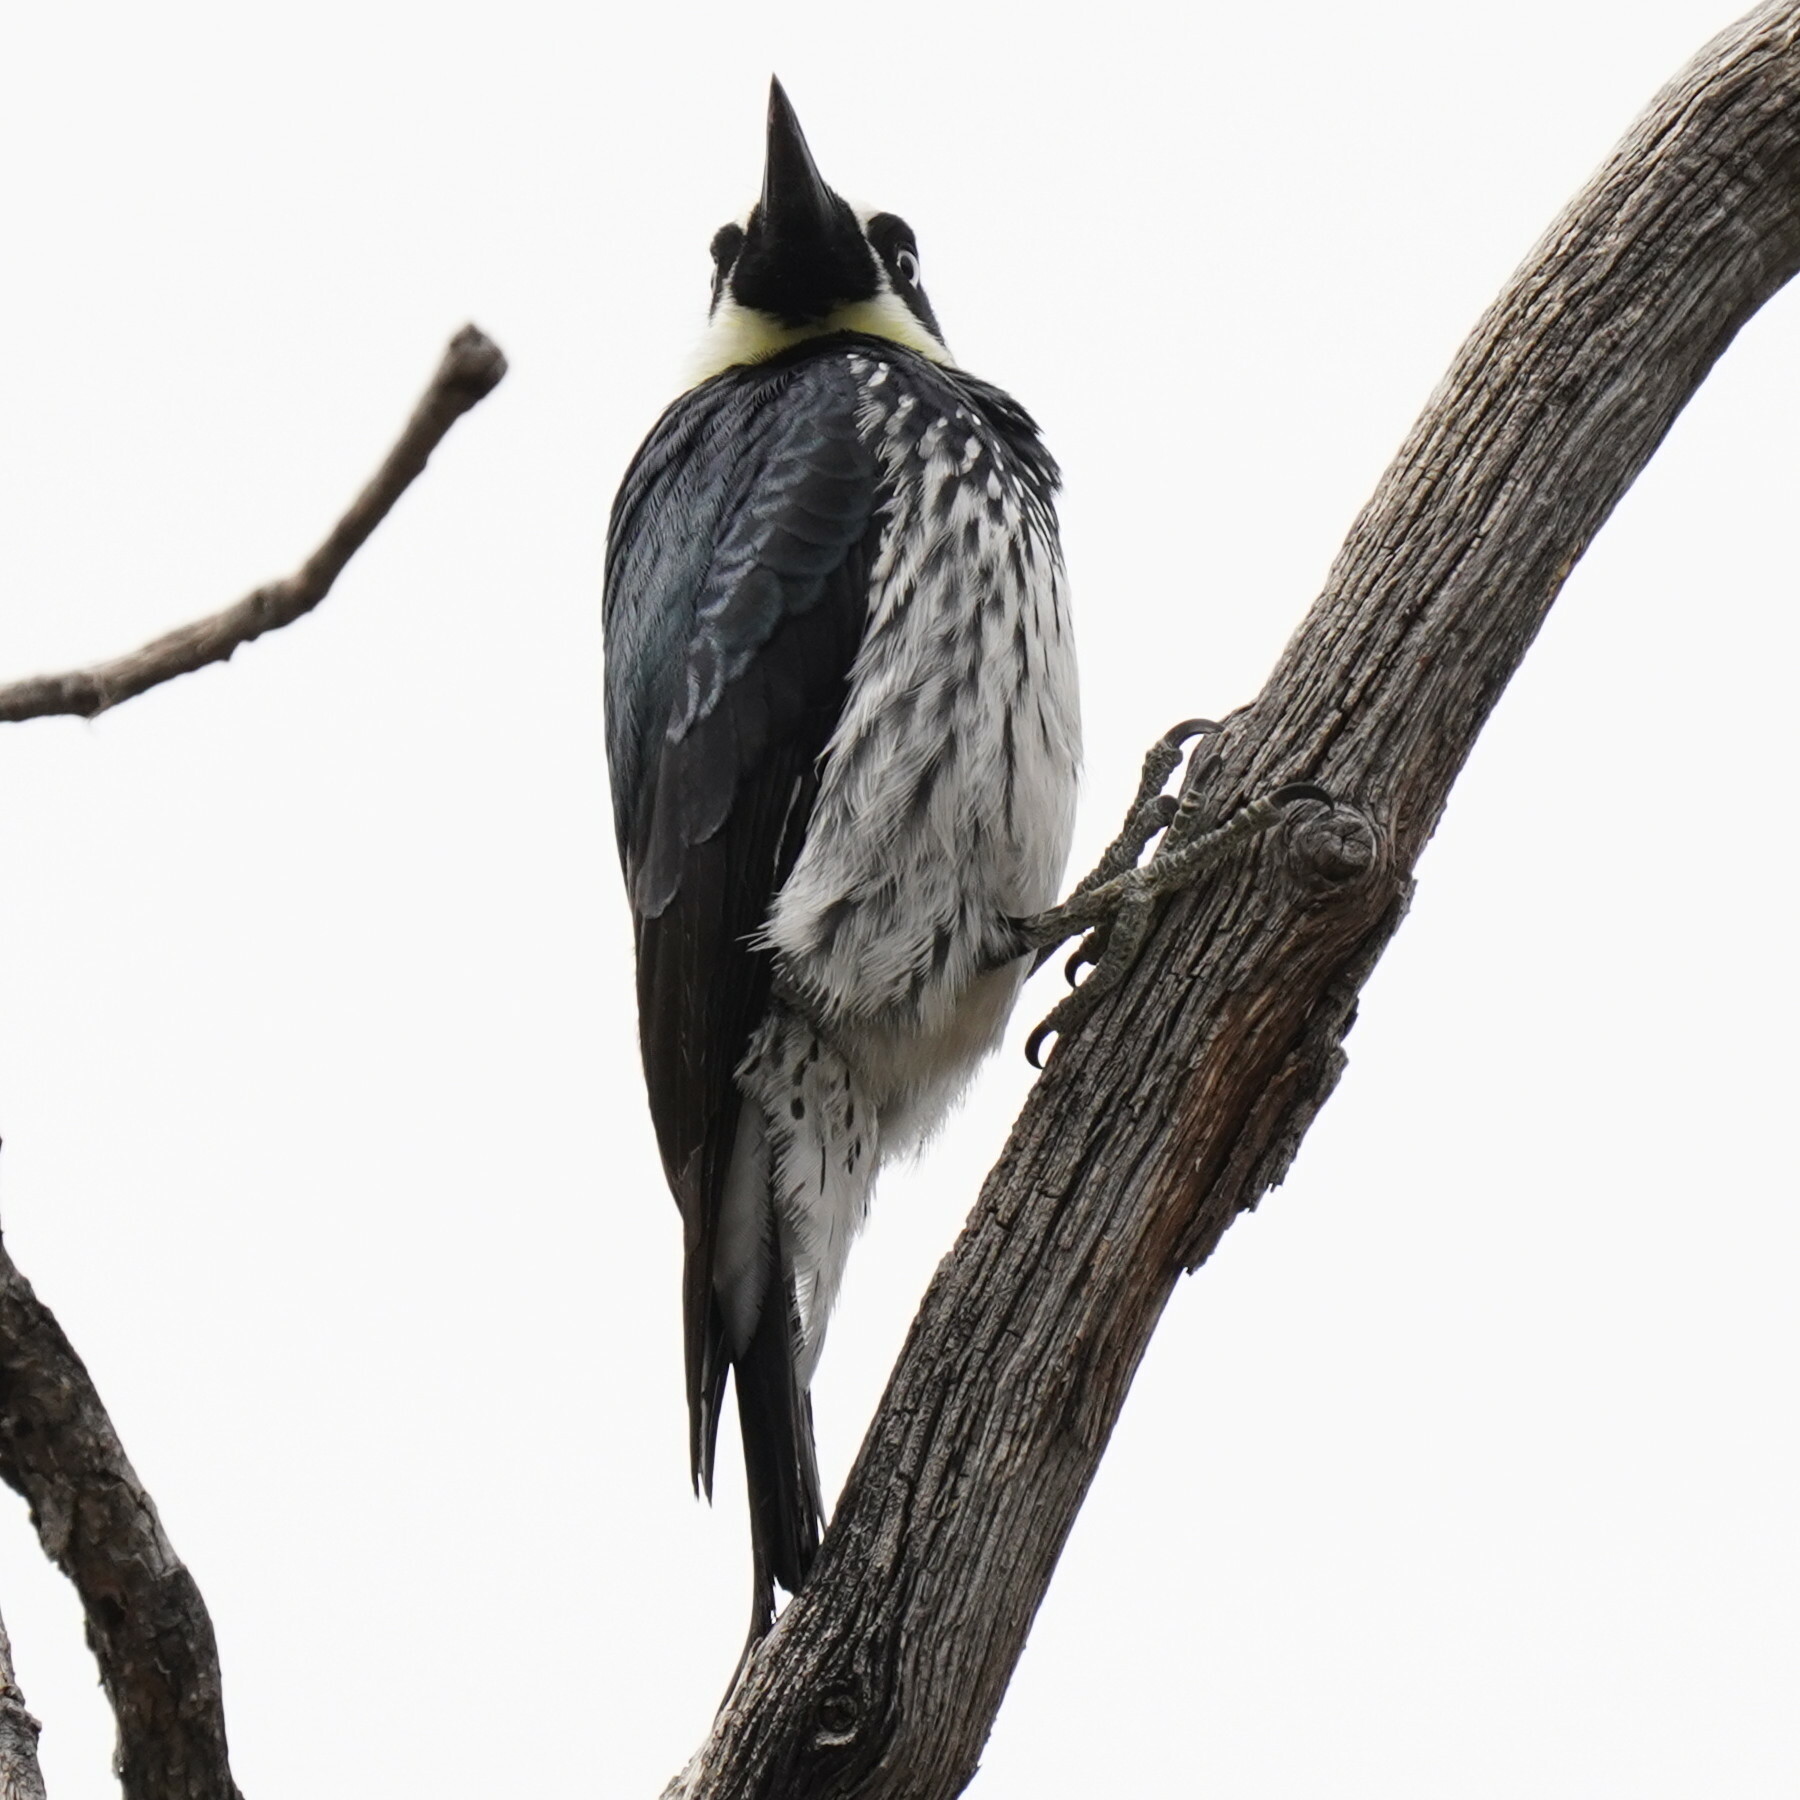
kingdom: Animalia
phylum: Chordata
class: Aves
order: Piciformes
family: Picidae
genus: Melanerpes
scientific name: Melanerpes formicivorus
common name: Acorn woodpecker
